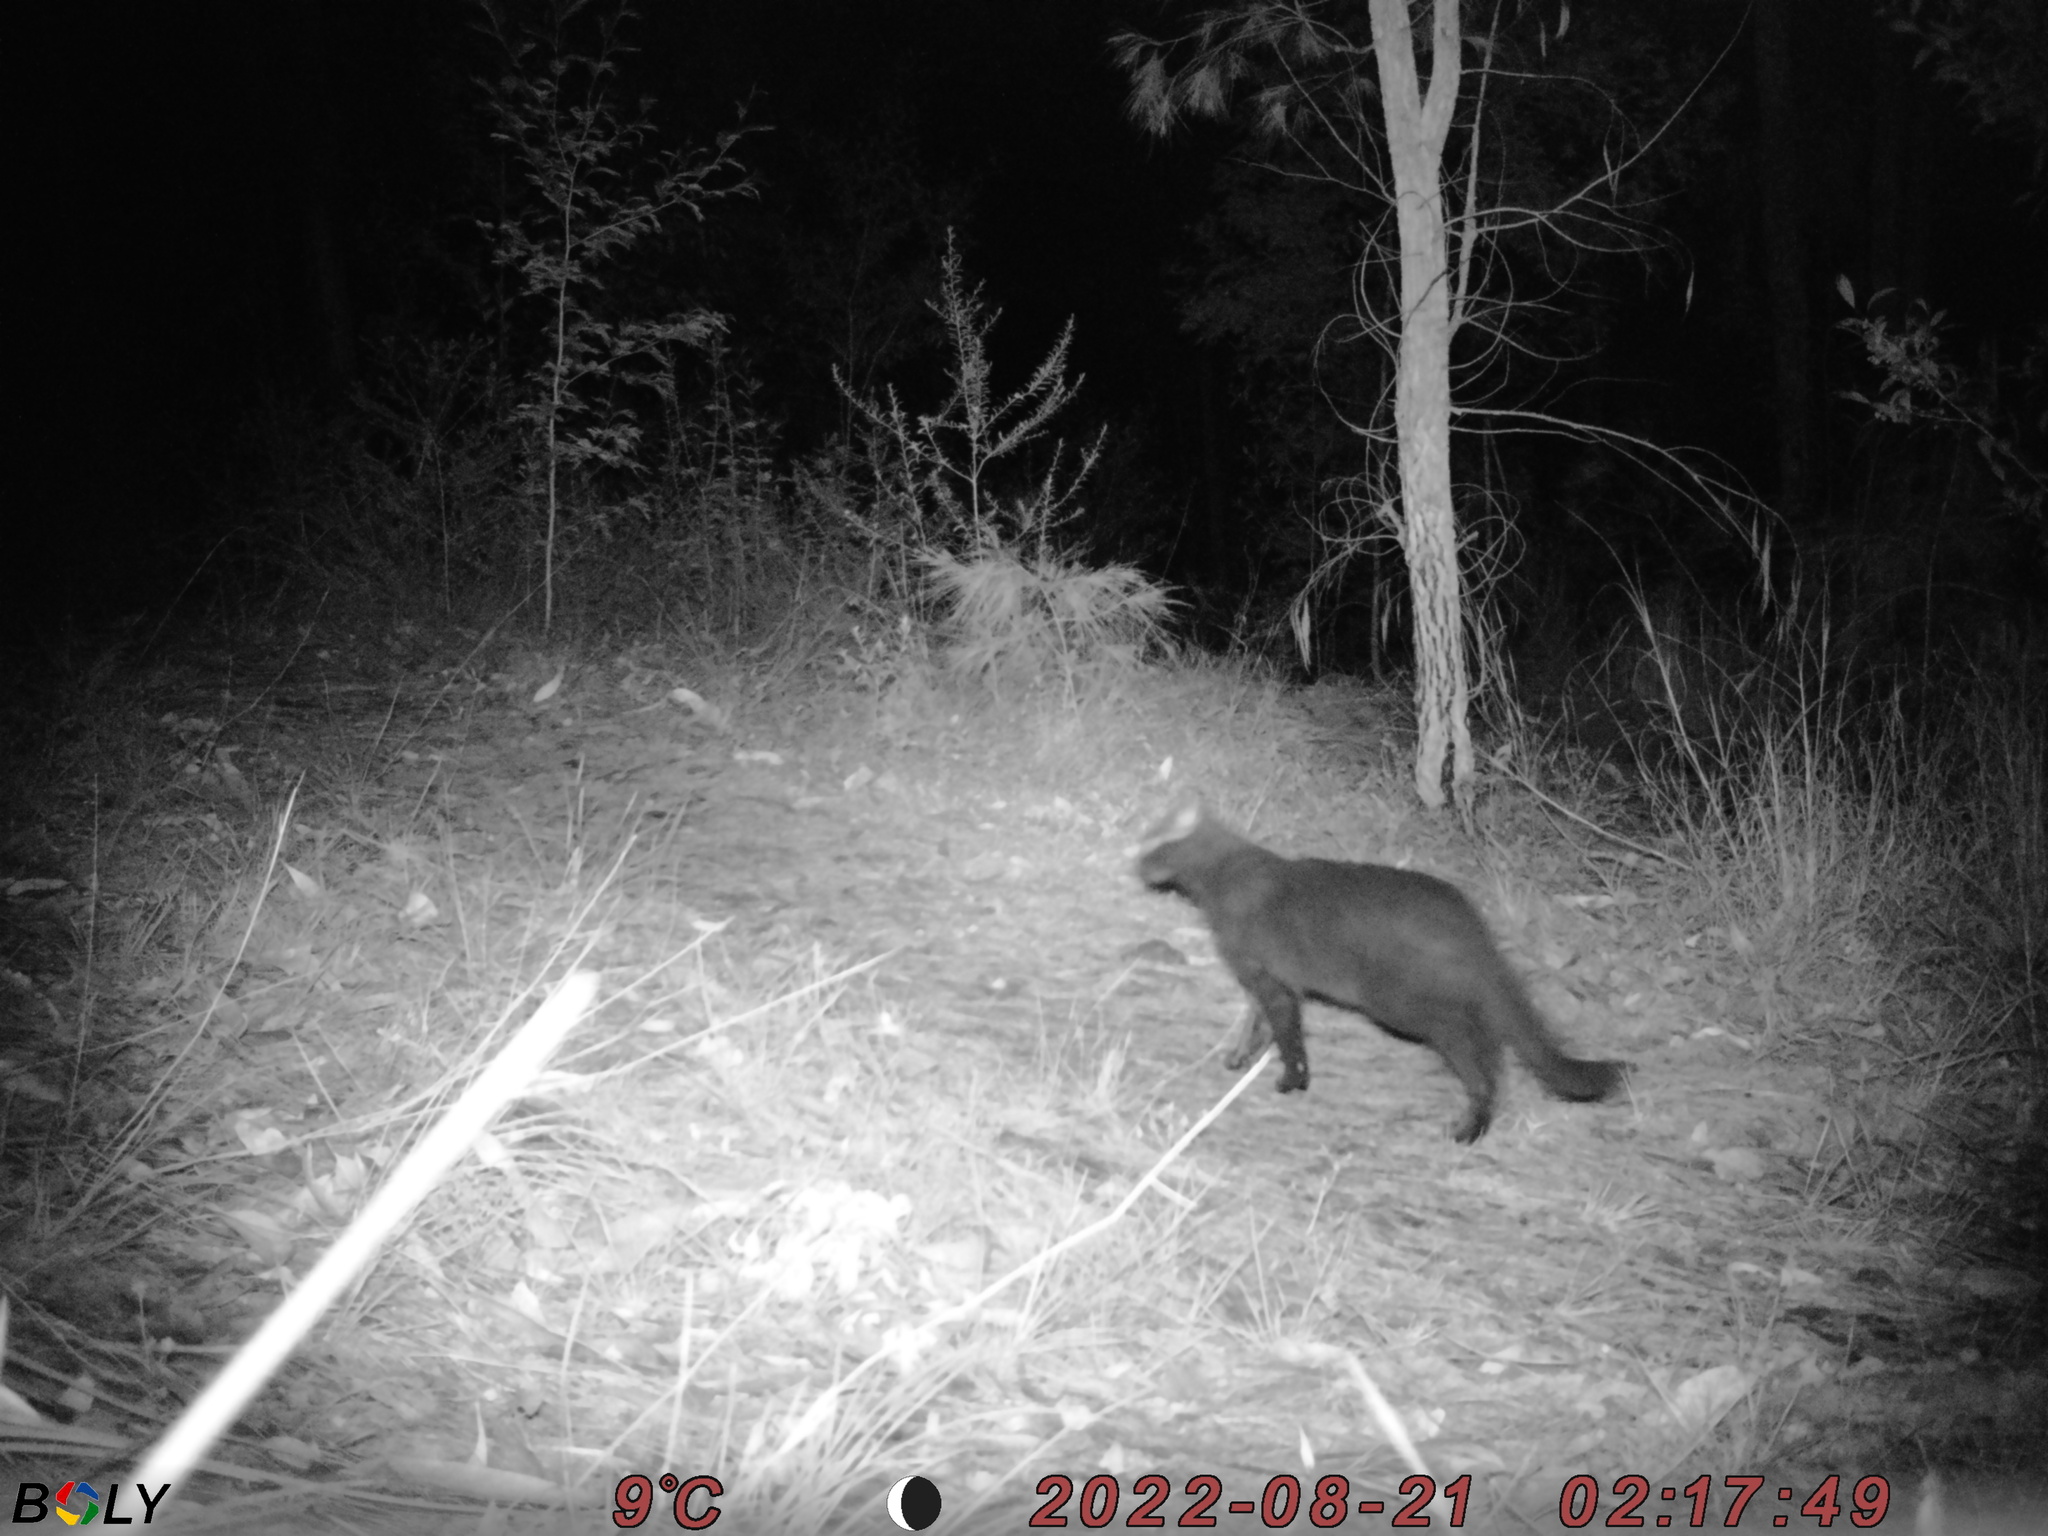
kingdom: Animalia
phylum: Chordata
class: Mammalia
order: Carnivora
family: Felidae
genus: Felis
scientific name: Felis catus
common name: Domestic cat
